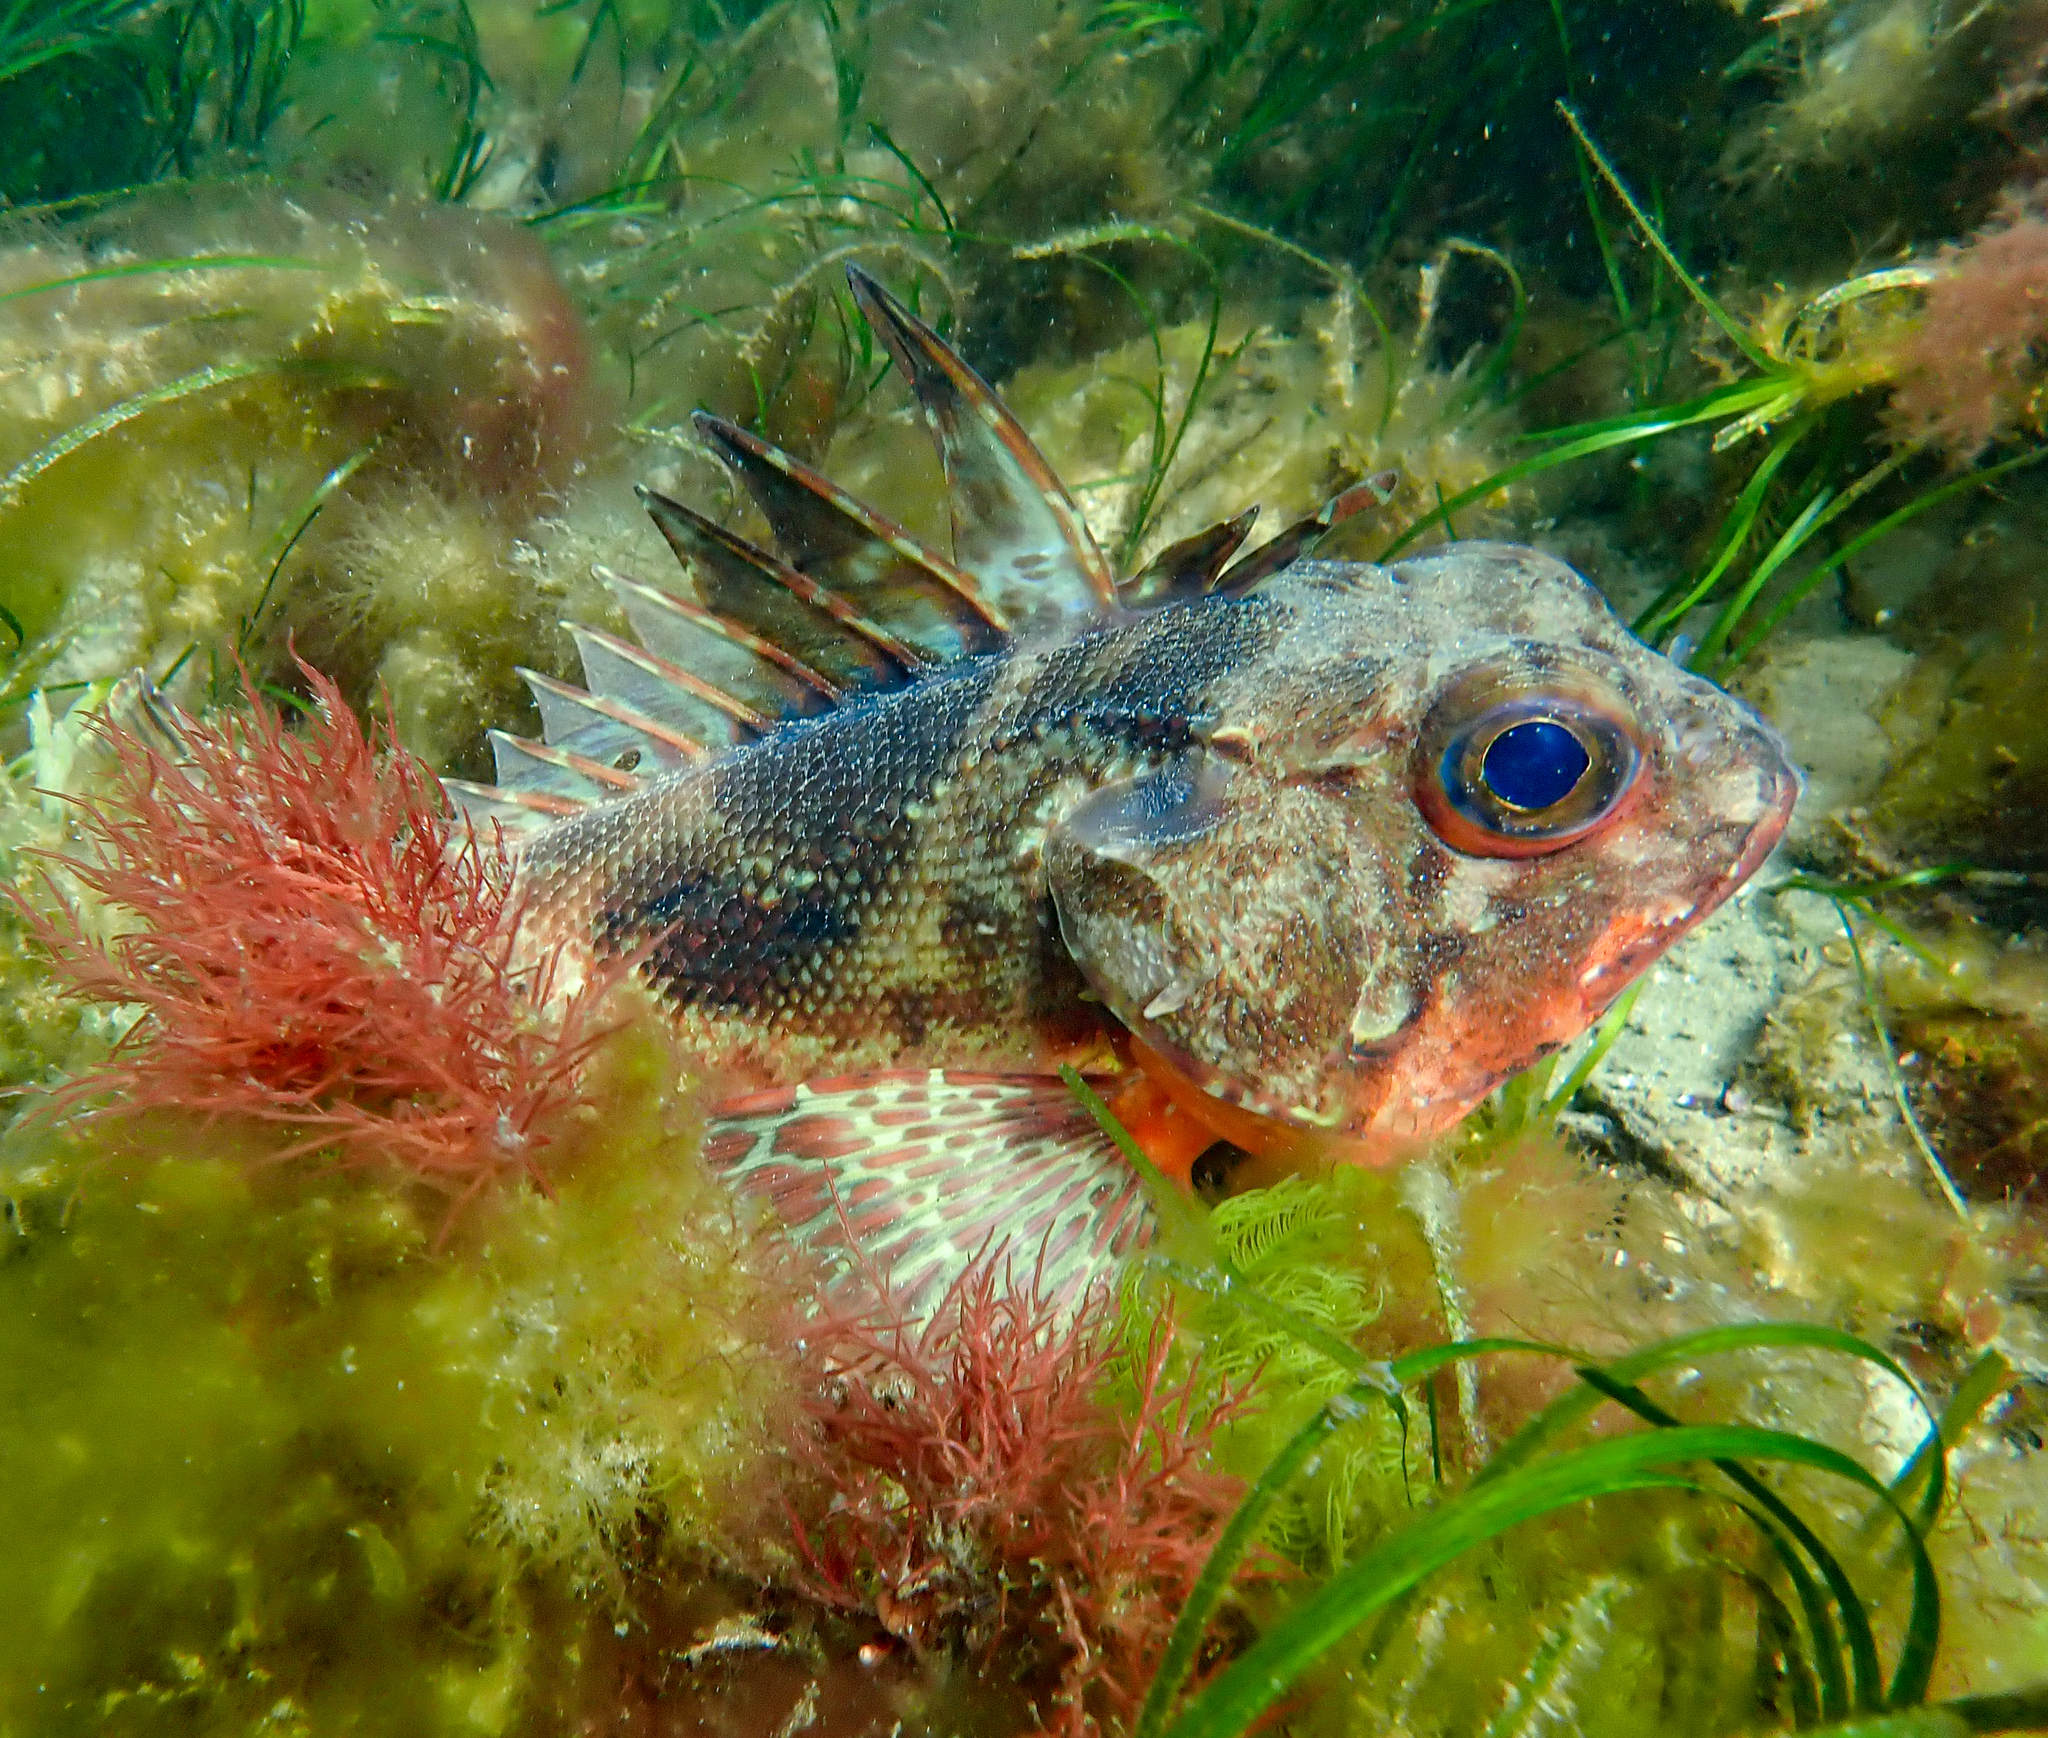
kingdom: Animalia
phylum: Chordata
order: Scorpaeniformes
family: Neosebastidae
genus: Neosebastes
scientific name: Neosebastes scorpaenoides
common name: Cobbler perch
